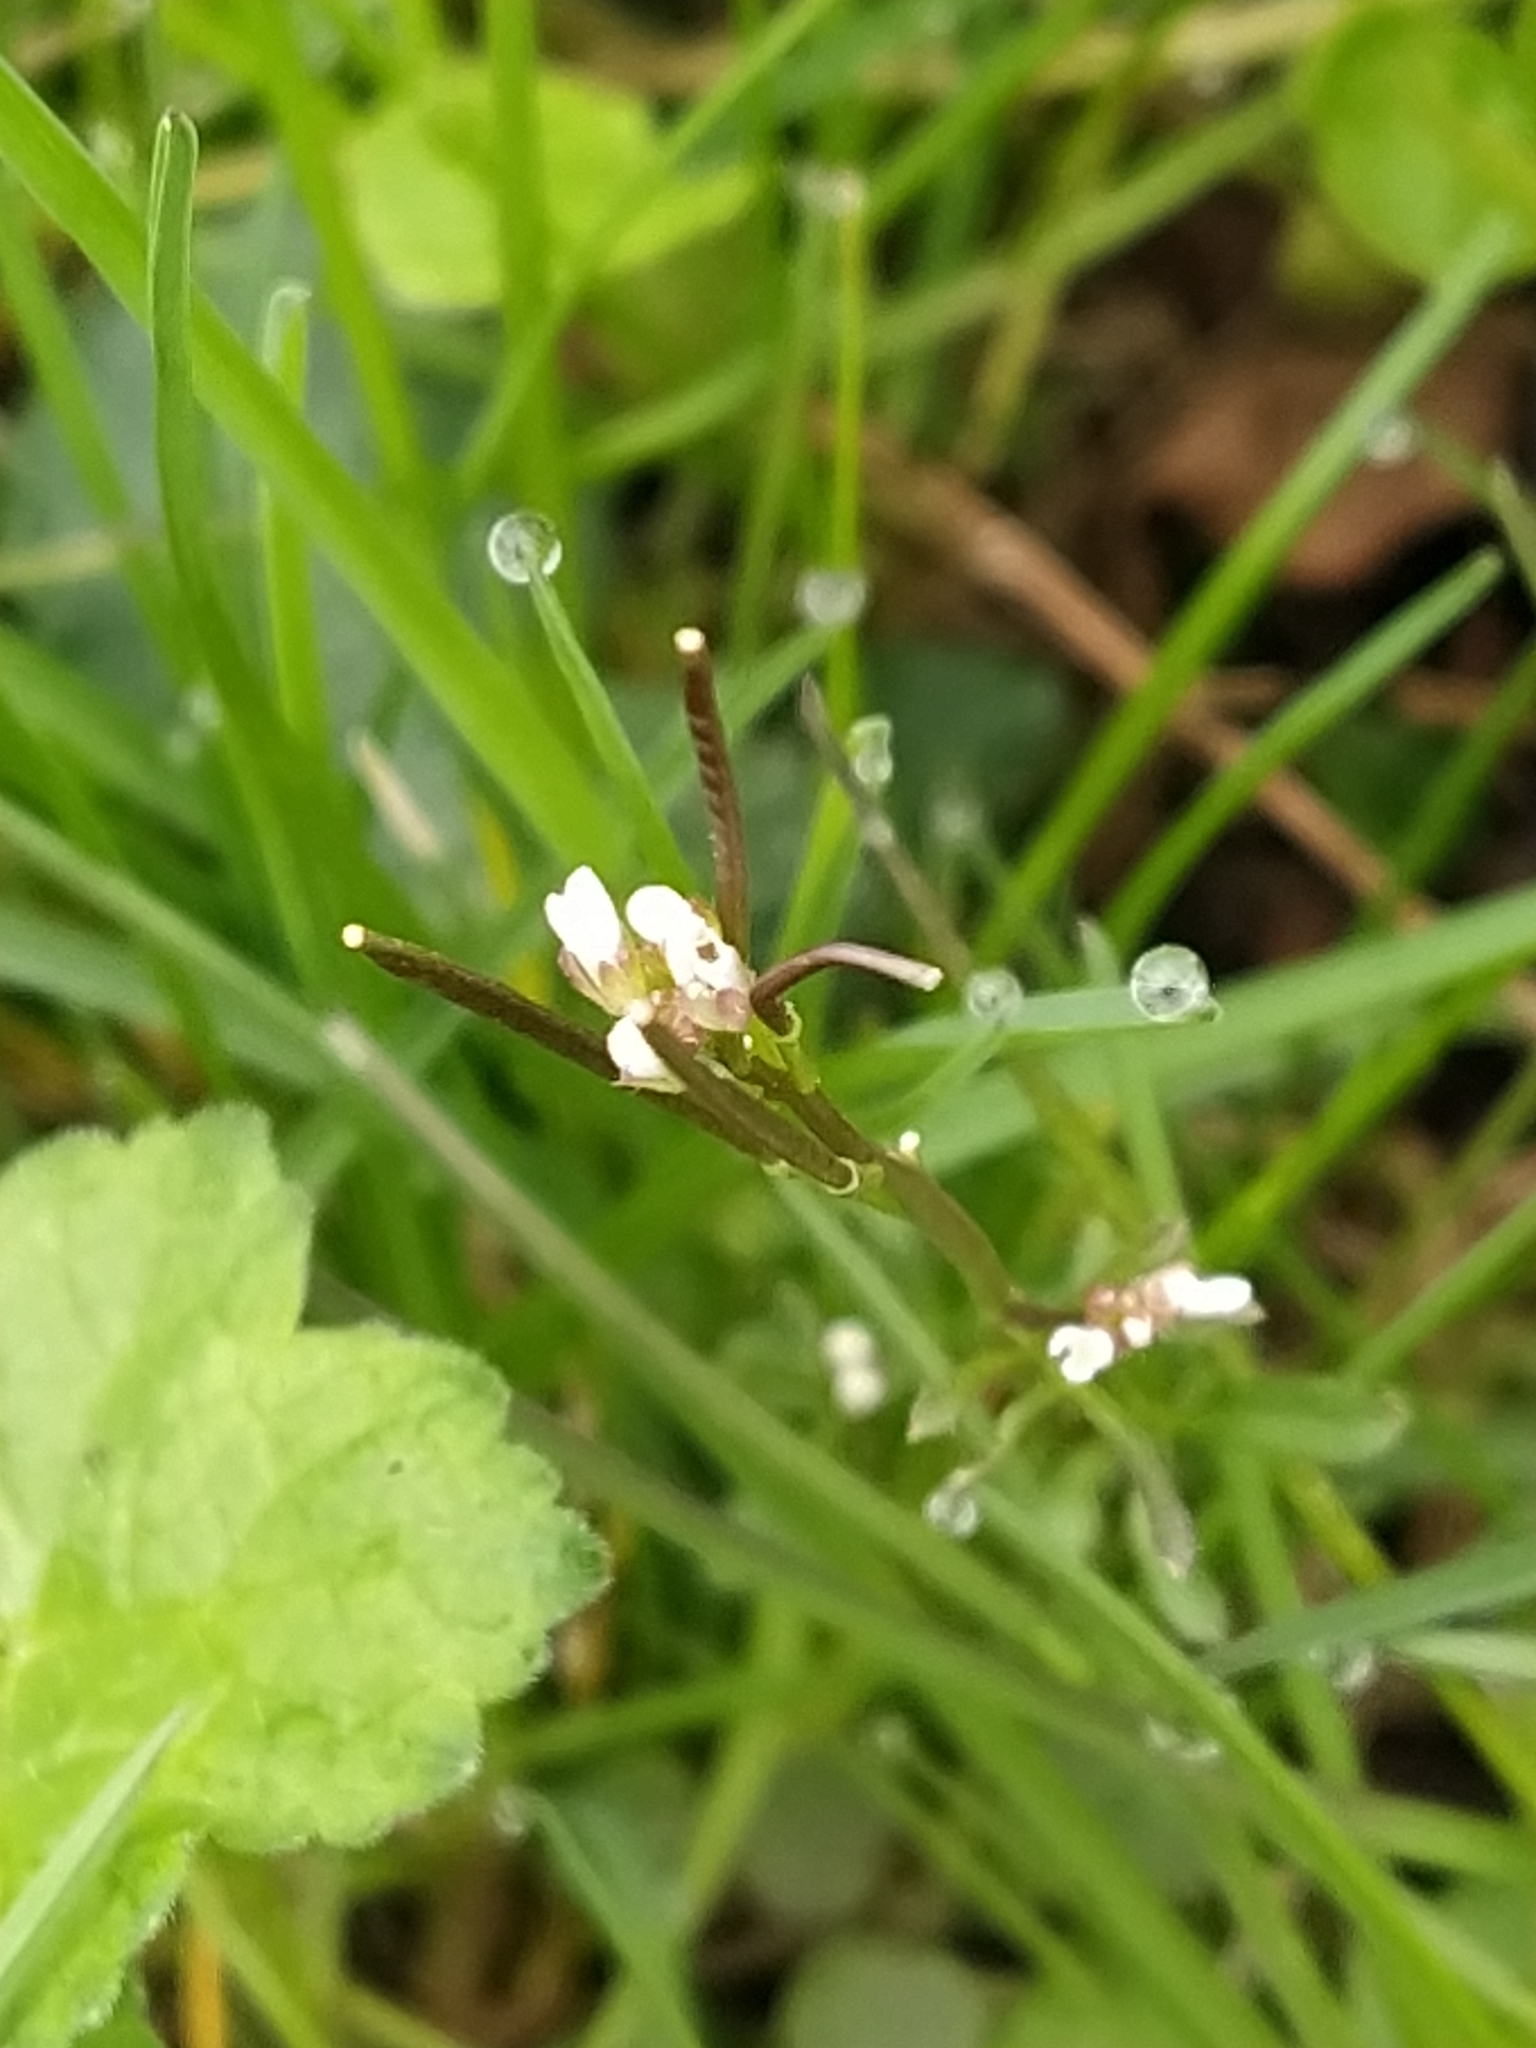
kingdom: Plantae
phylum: Tracheophyta
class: Magnoliopsida
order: Brassicales
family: Brassicaceae
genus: Cardamine
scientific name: Cardamine hirsuta
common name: Hairy bittercress
